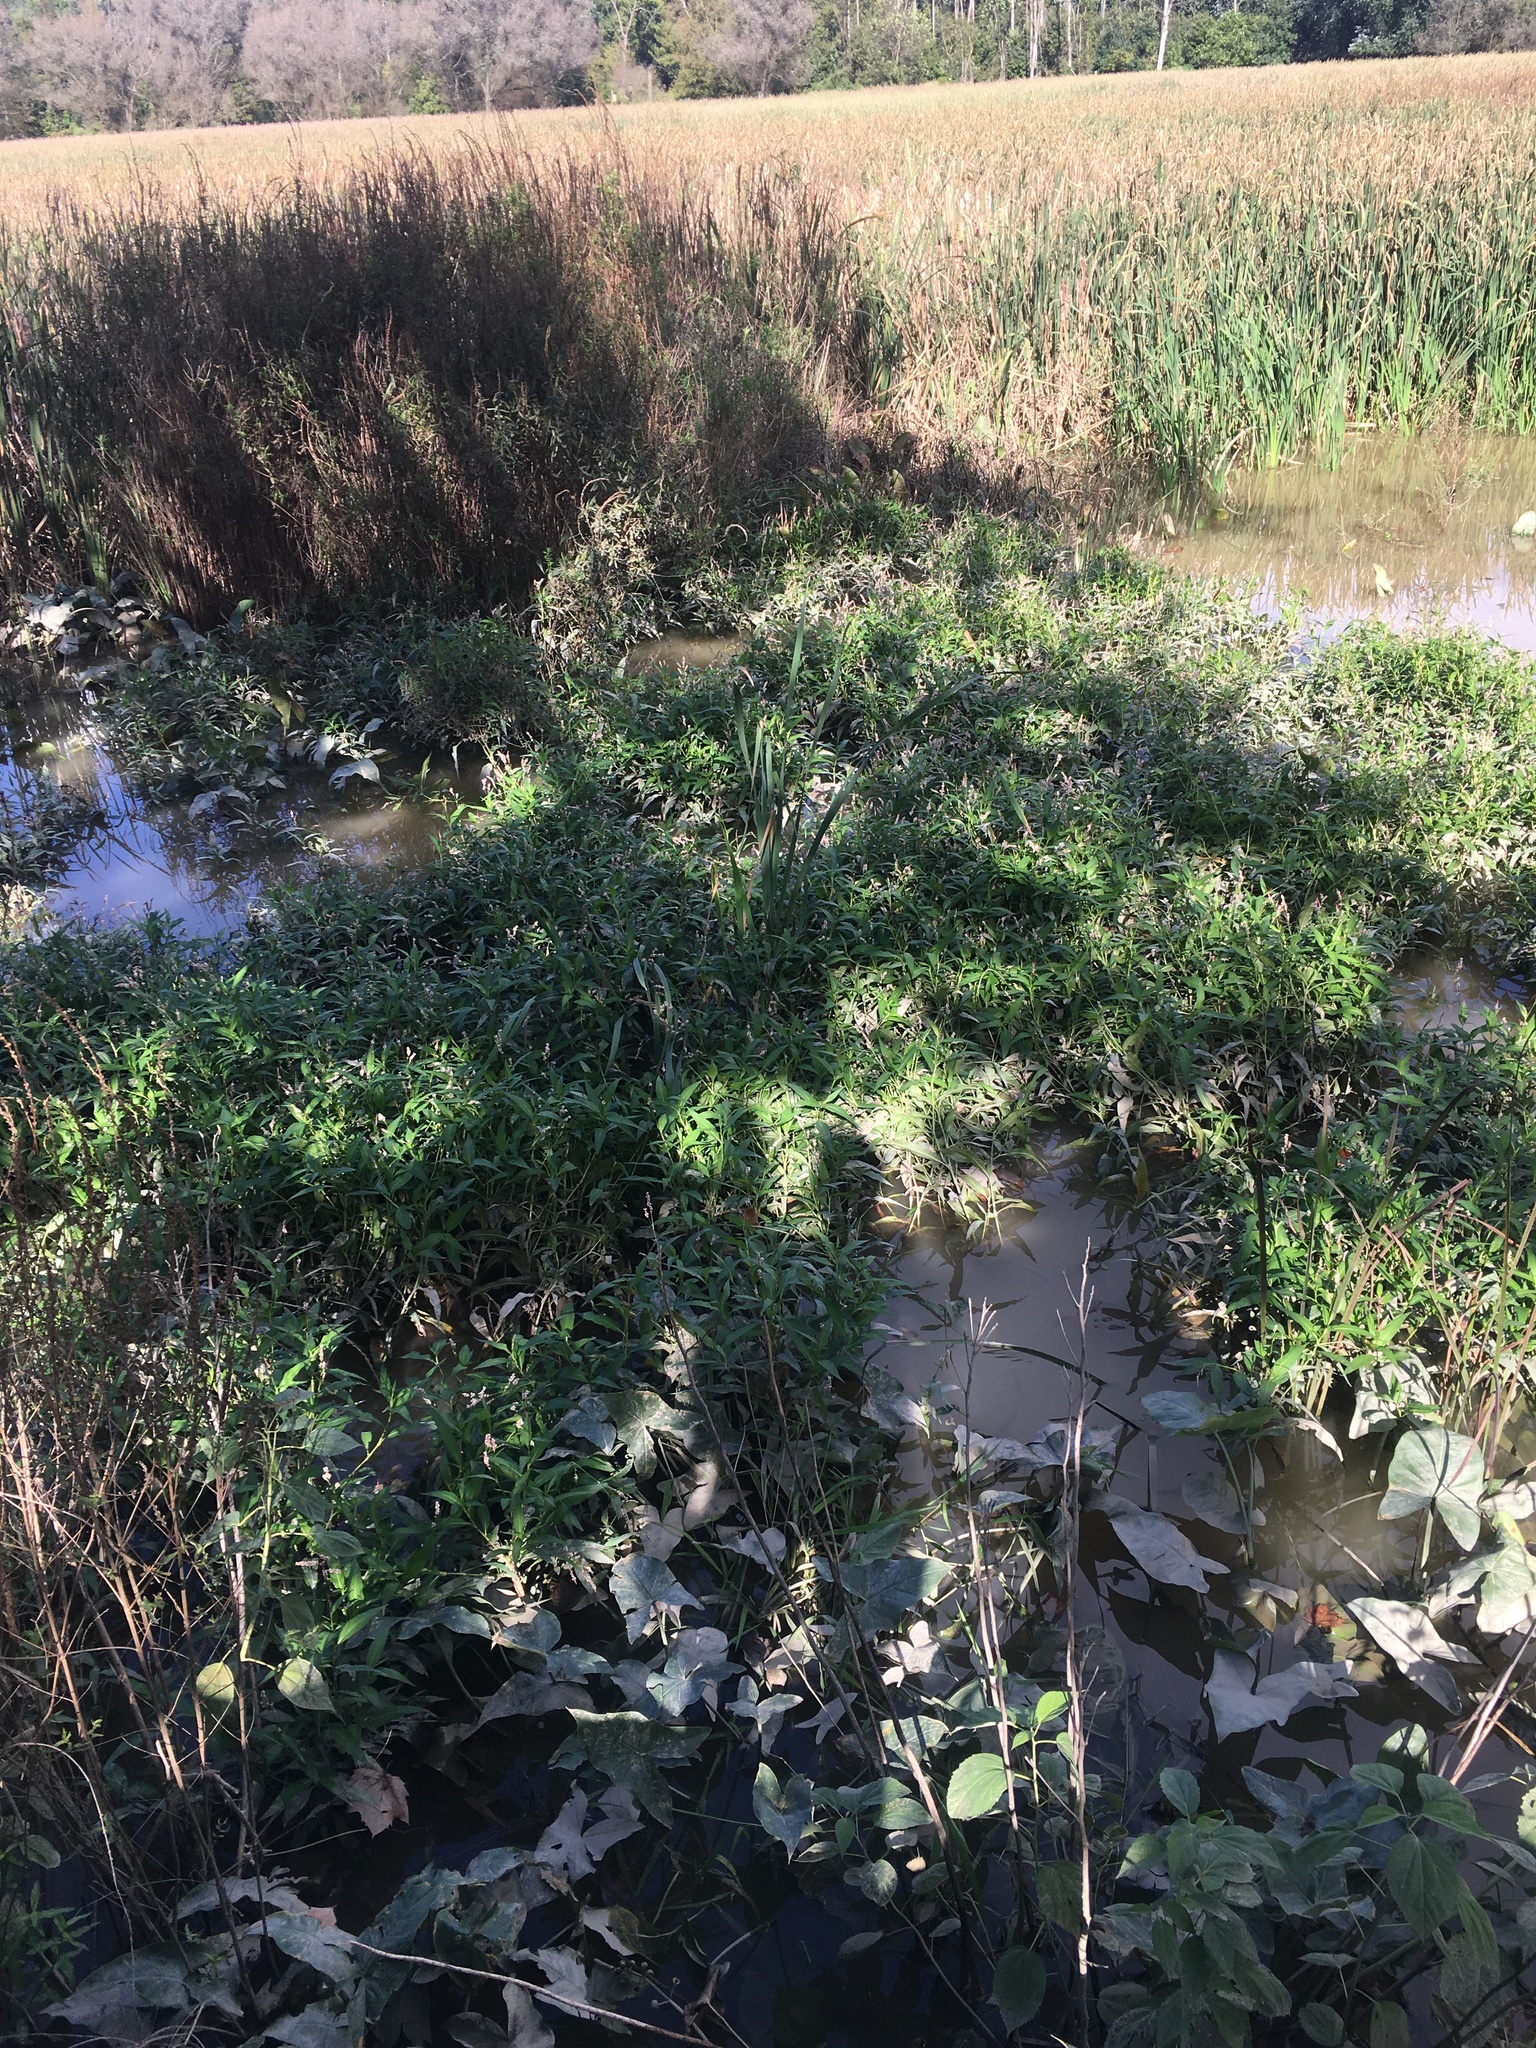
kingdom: Plantae
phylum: Tracheophyta
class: Magnoliopsida
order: Caryophyllales
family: Polygonaceae
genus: Persicaria
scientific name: Persicaria glabra
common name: Denseflower knotweed
